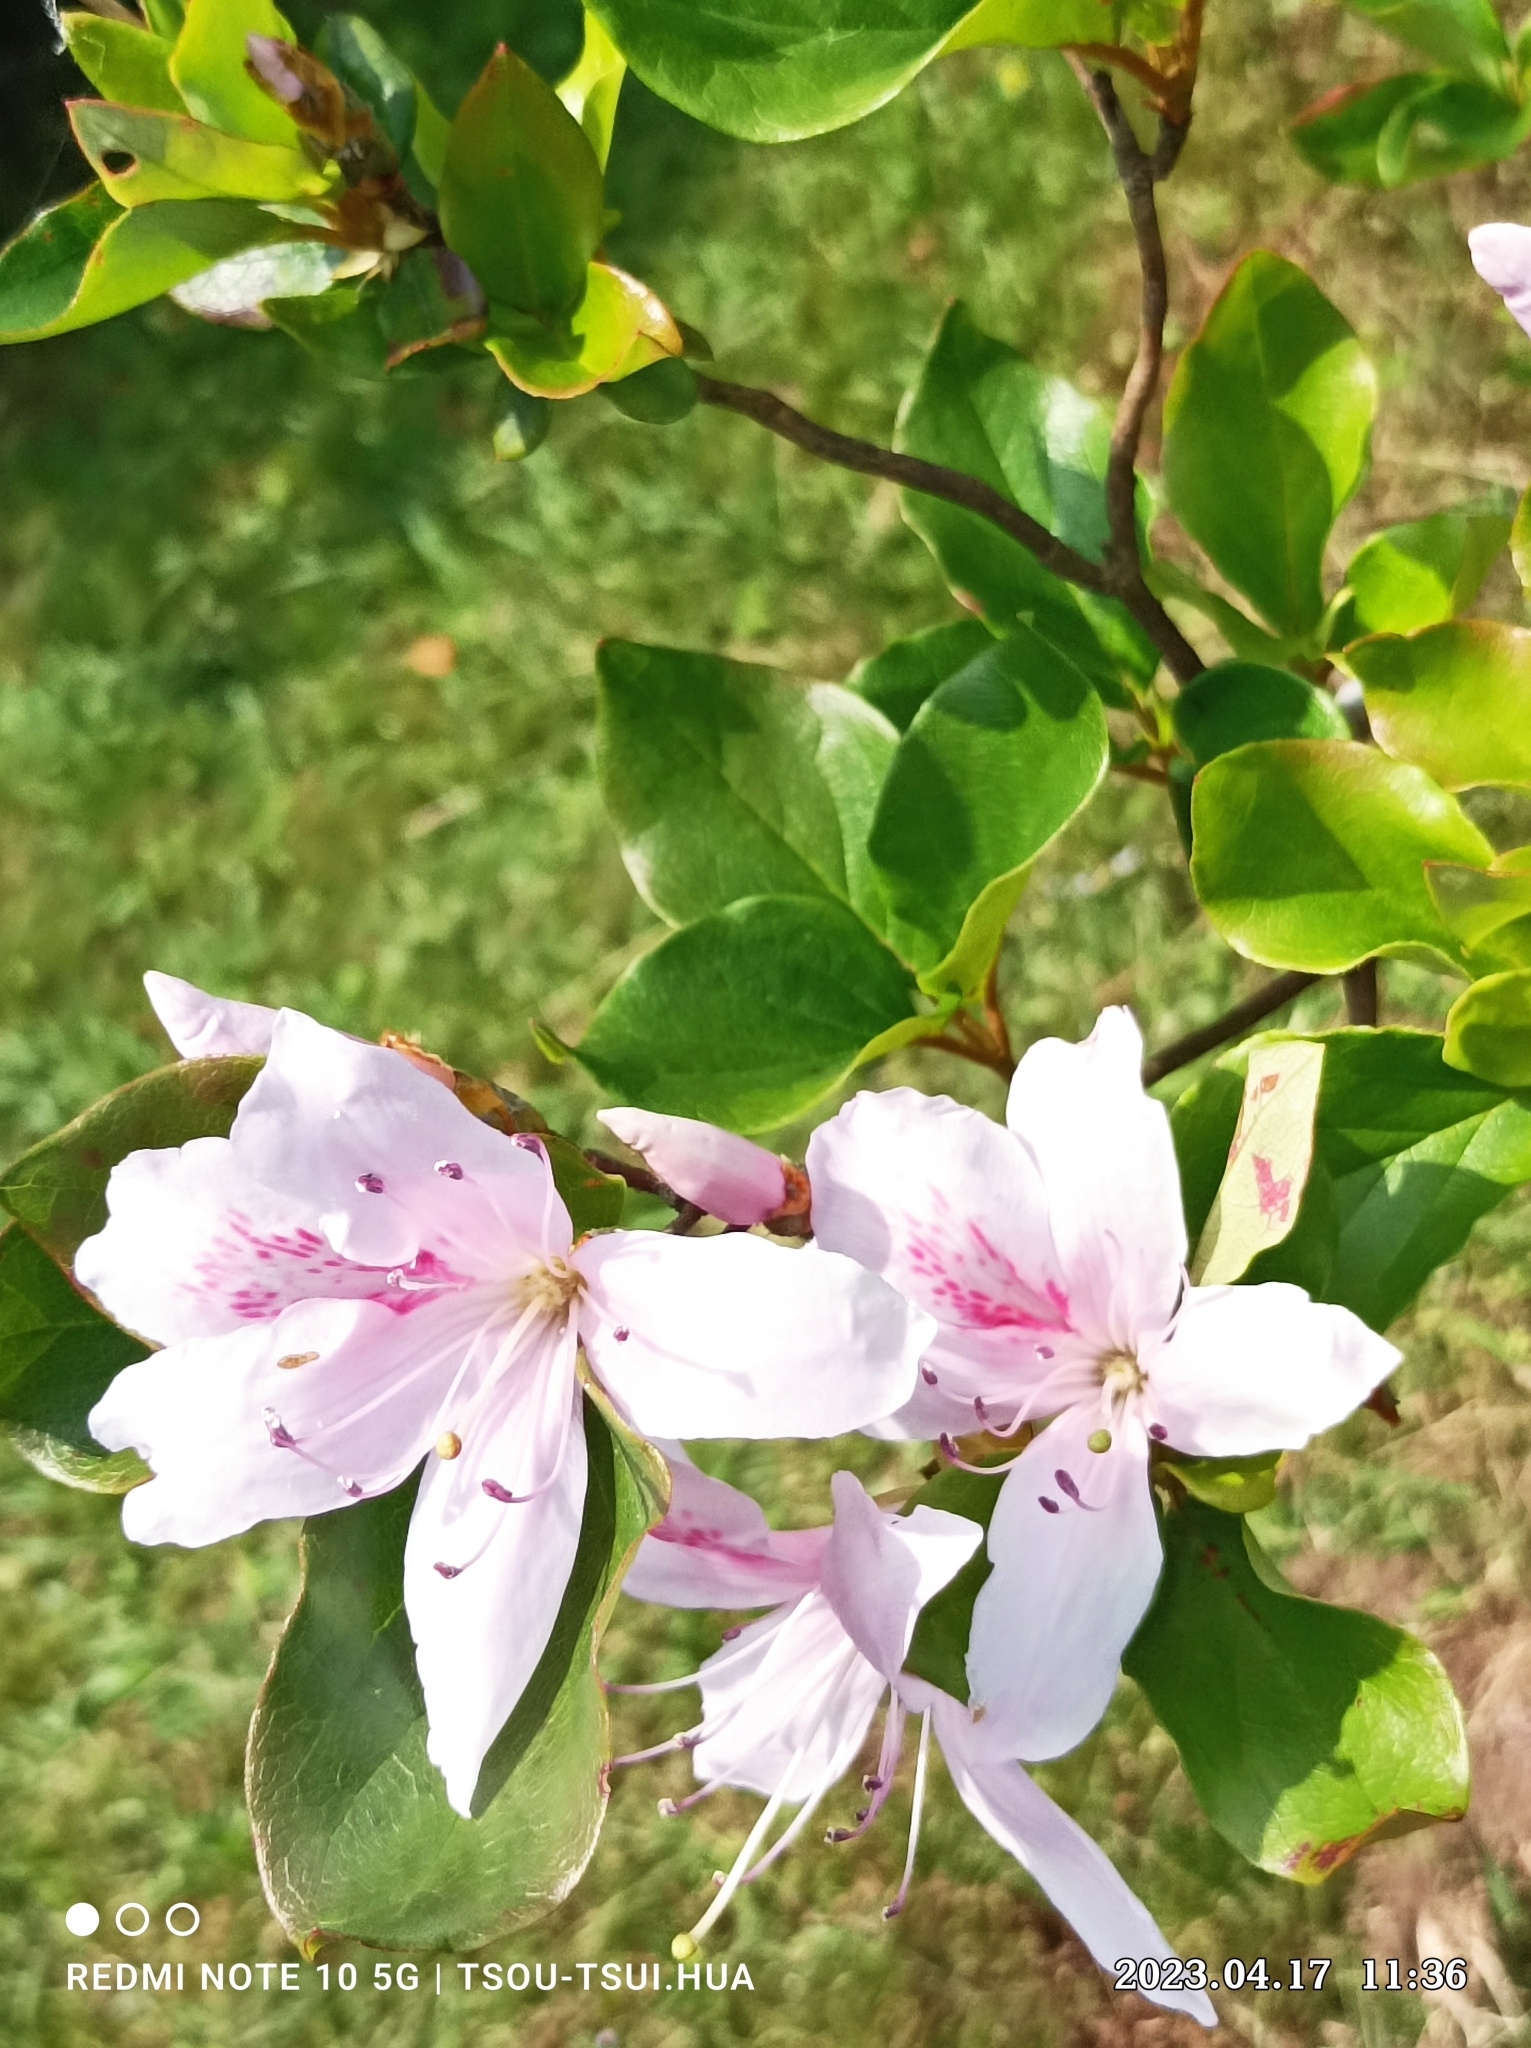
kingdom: Plantae
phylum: Tracheophyta
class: Magnoliopsida
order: Ericales
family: Ericaceae
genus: Rhododendron
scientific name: Rhododendron mariesii
